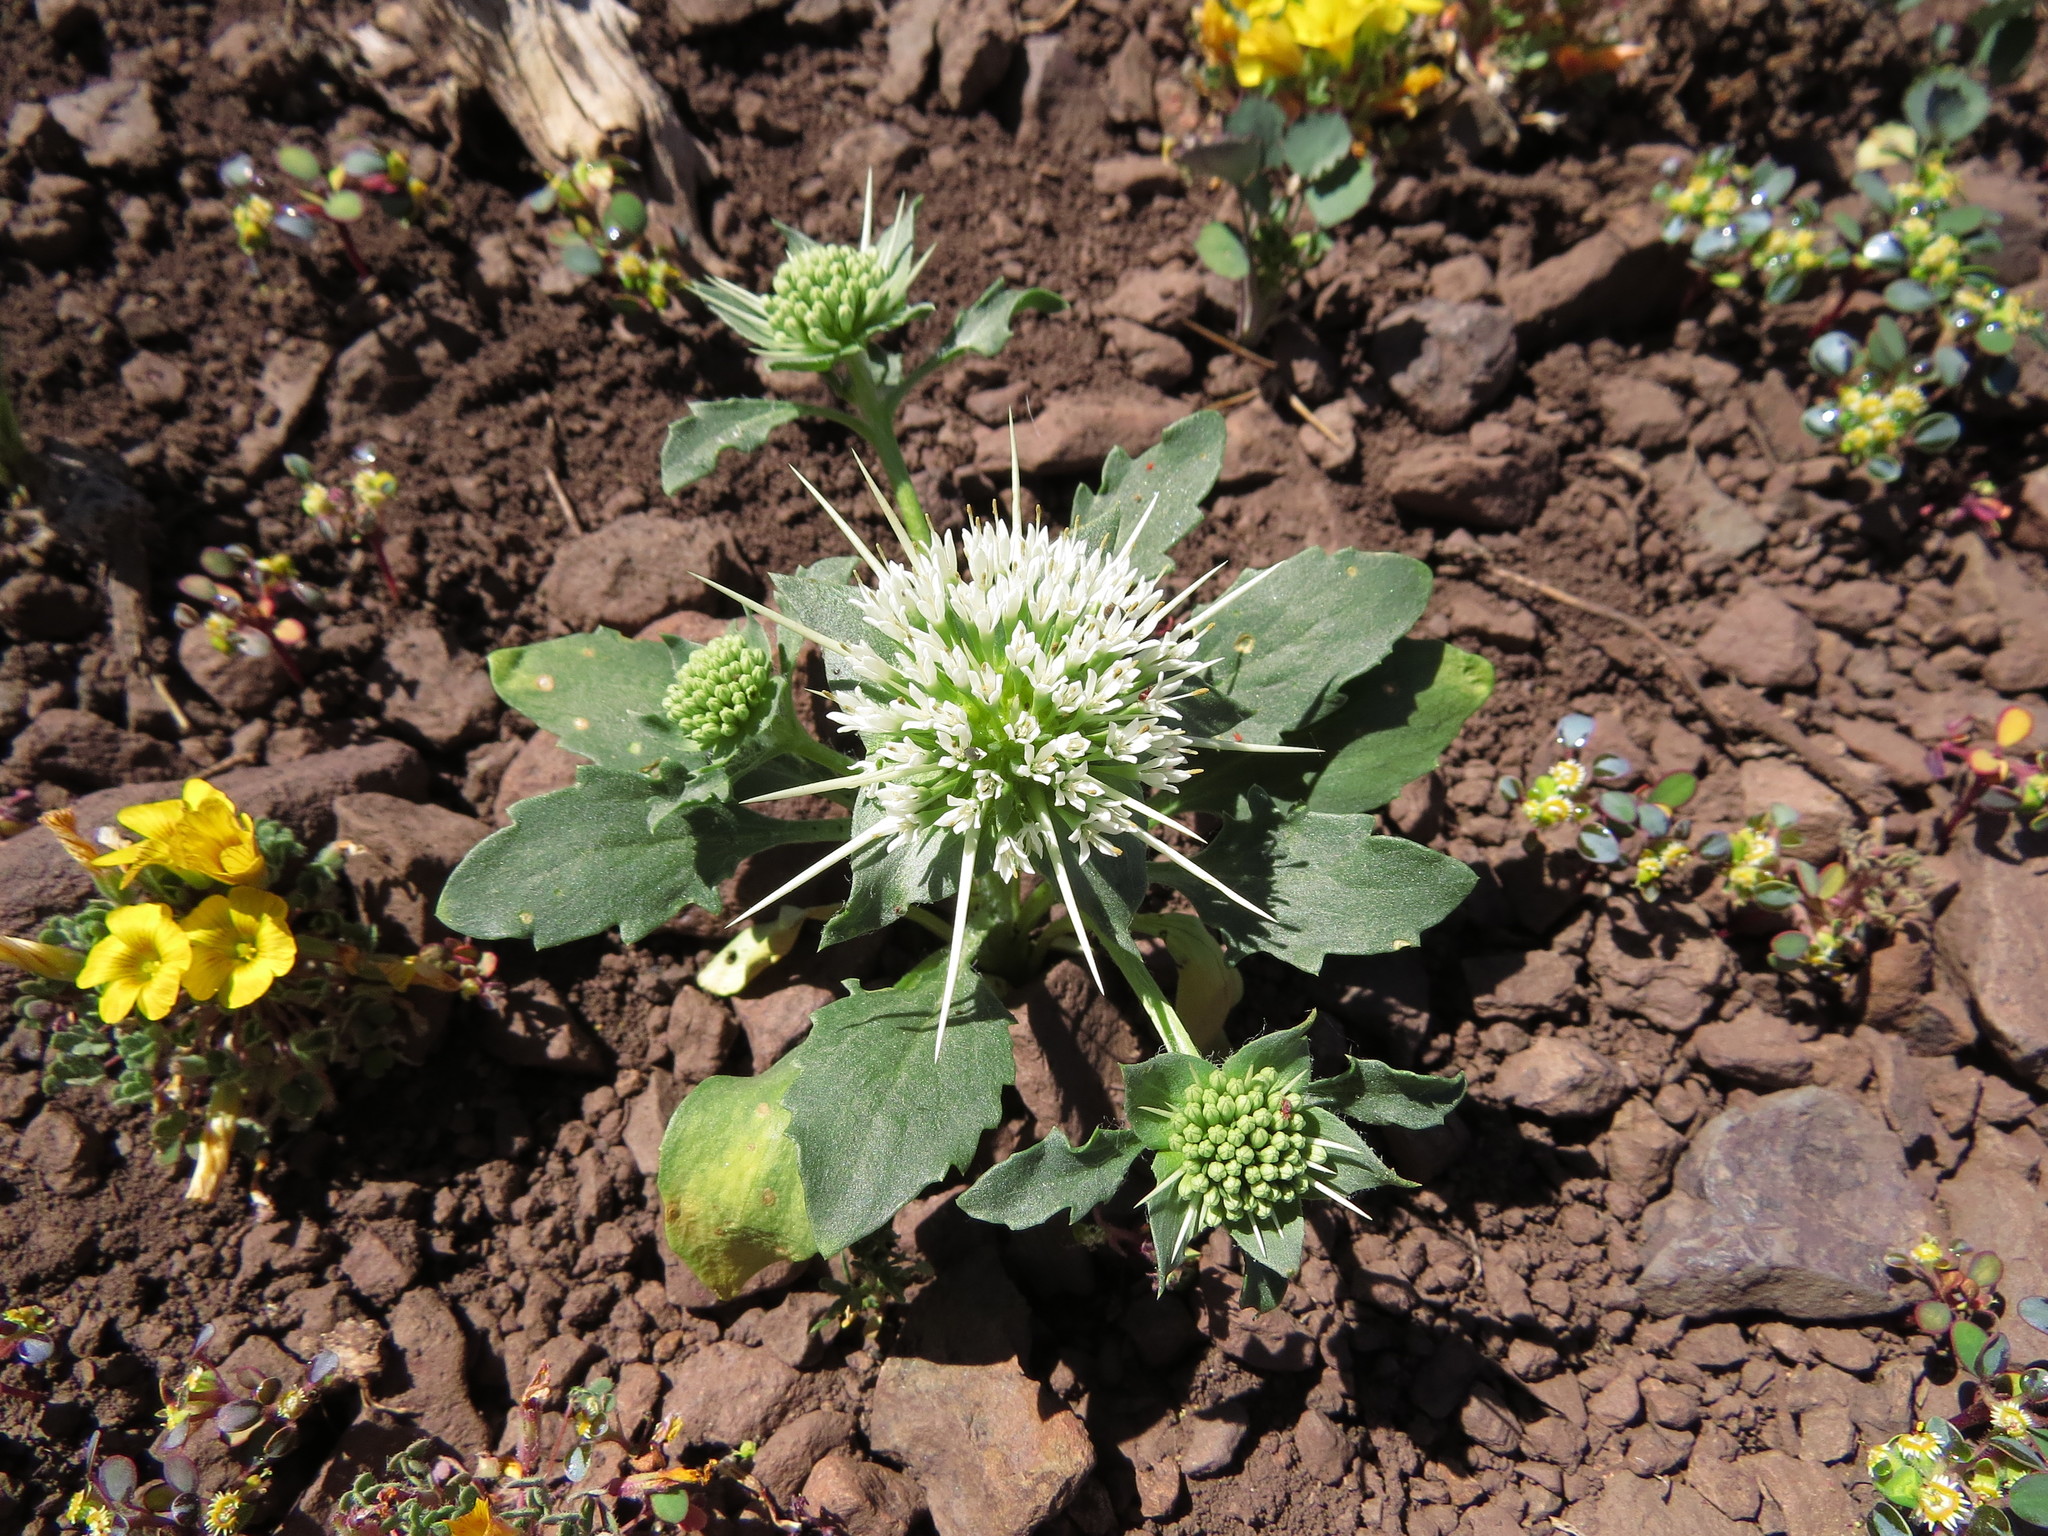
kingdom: Plantae
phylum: Tracheophyta
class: Magnoliopsida
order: Asterales
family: Calyceraceae
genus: Leucocera
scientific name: Leucocera eryngioides
